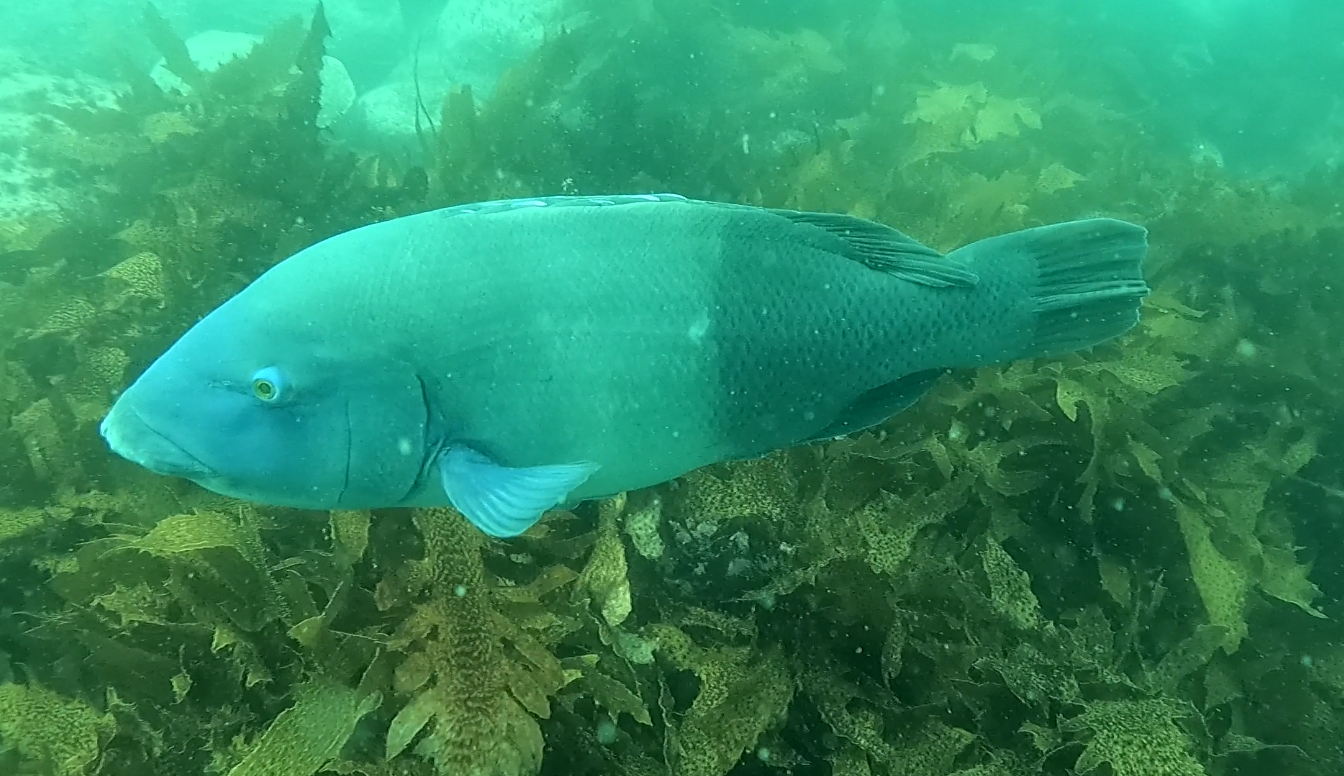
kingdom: Animalia
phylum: Chordata
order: Perciformes
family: Labridae
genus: Achoerodus
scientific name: Achoerodus viridis
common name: Brown groper
